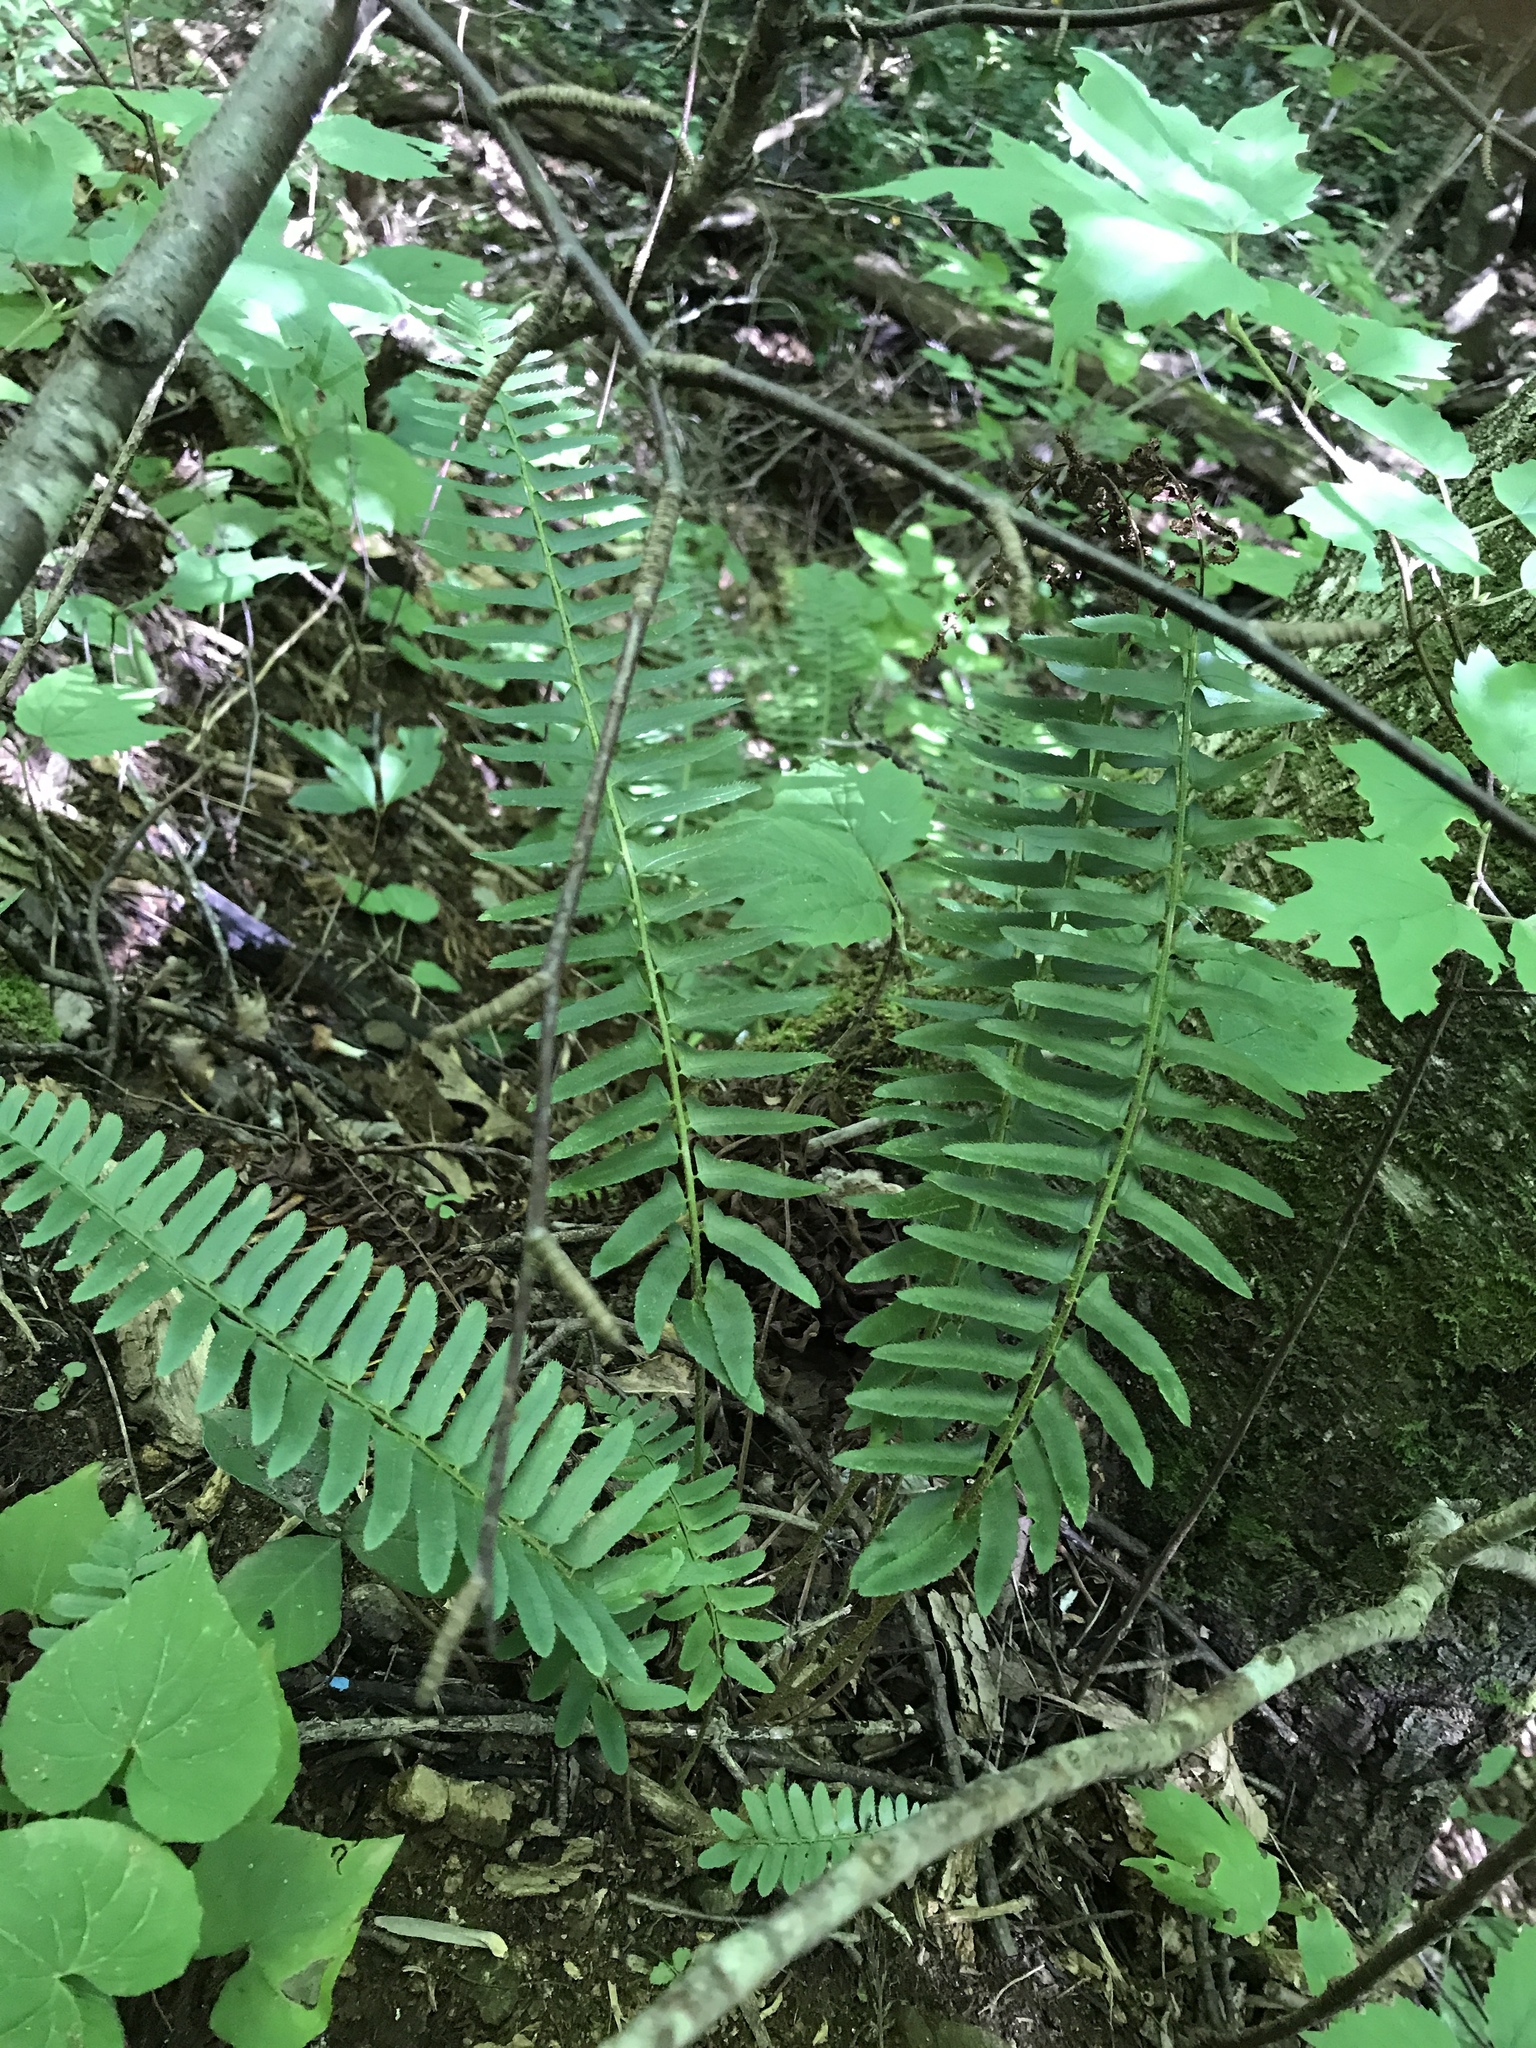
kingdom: Plantae
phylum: Tracheophyta
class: Polypodiopsida
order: Polypodiales
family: Dryopteridaceae
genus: Polystichum
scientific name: Polystichum acrostichoides
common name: Christmas fern
